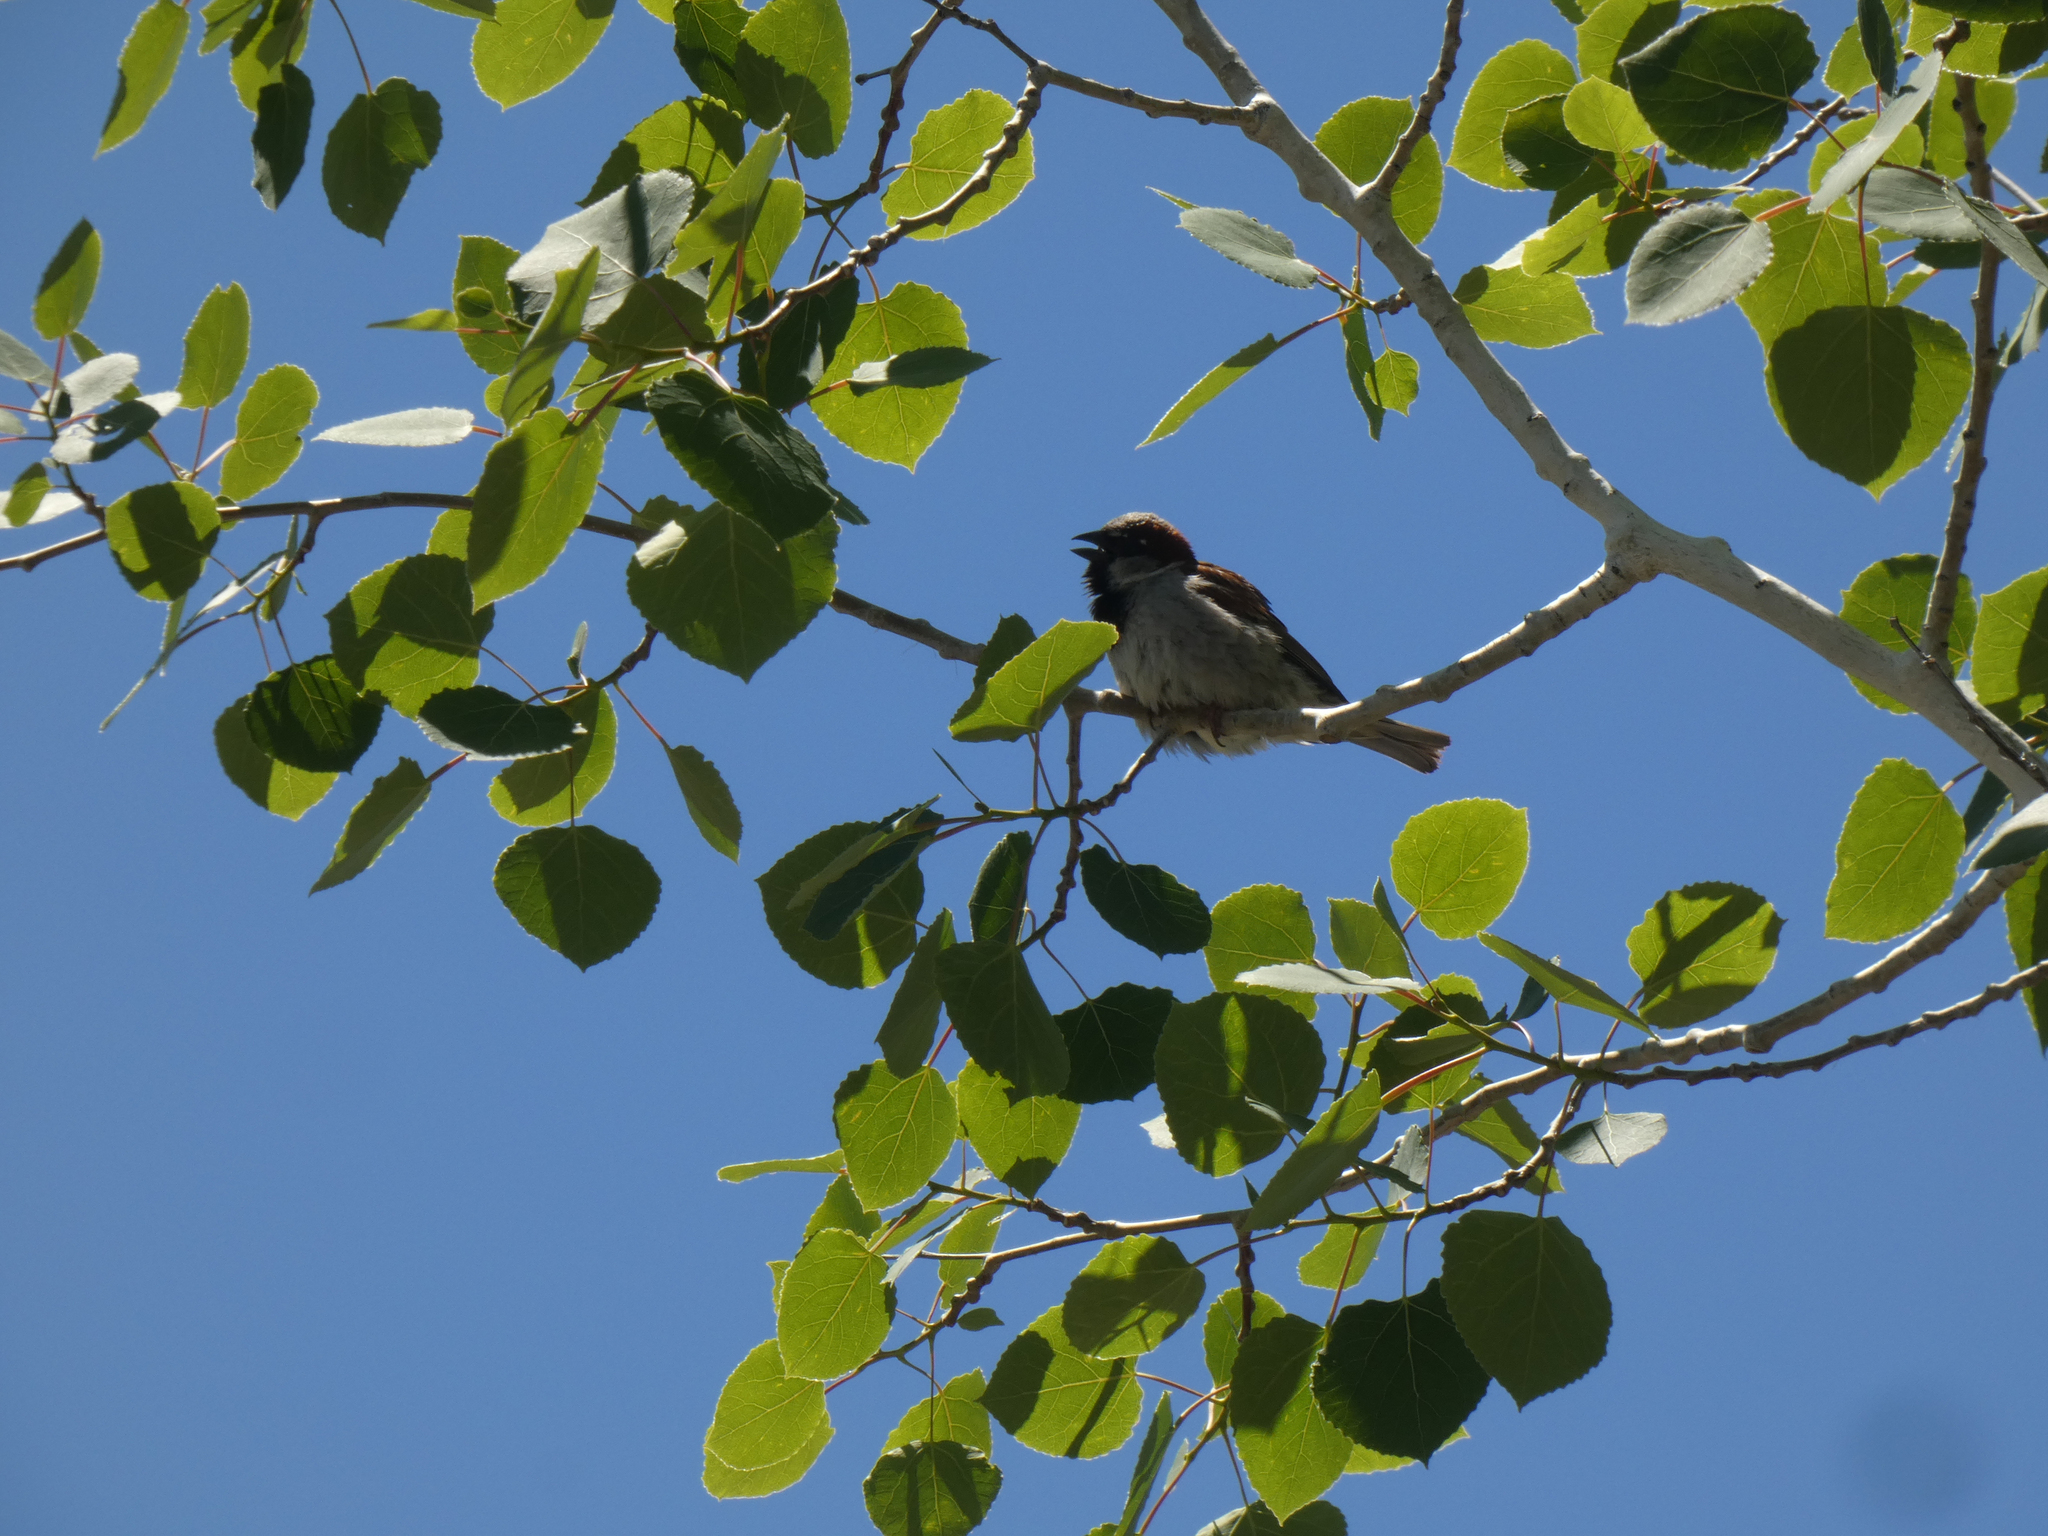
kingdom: Animalia
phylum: Chordata
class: Aves
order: Passeriformes
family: Passeridae
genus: Passer
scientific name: Passer domesticus
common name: House sparrow
